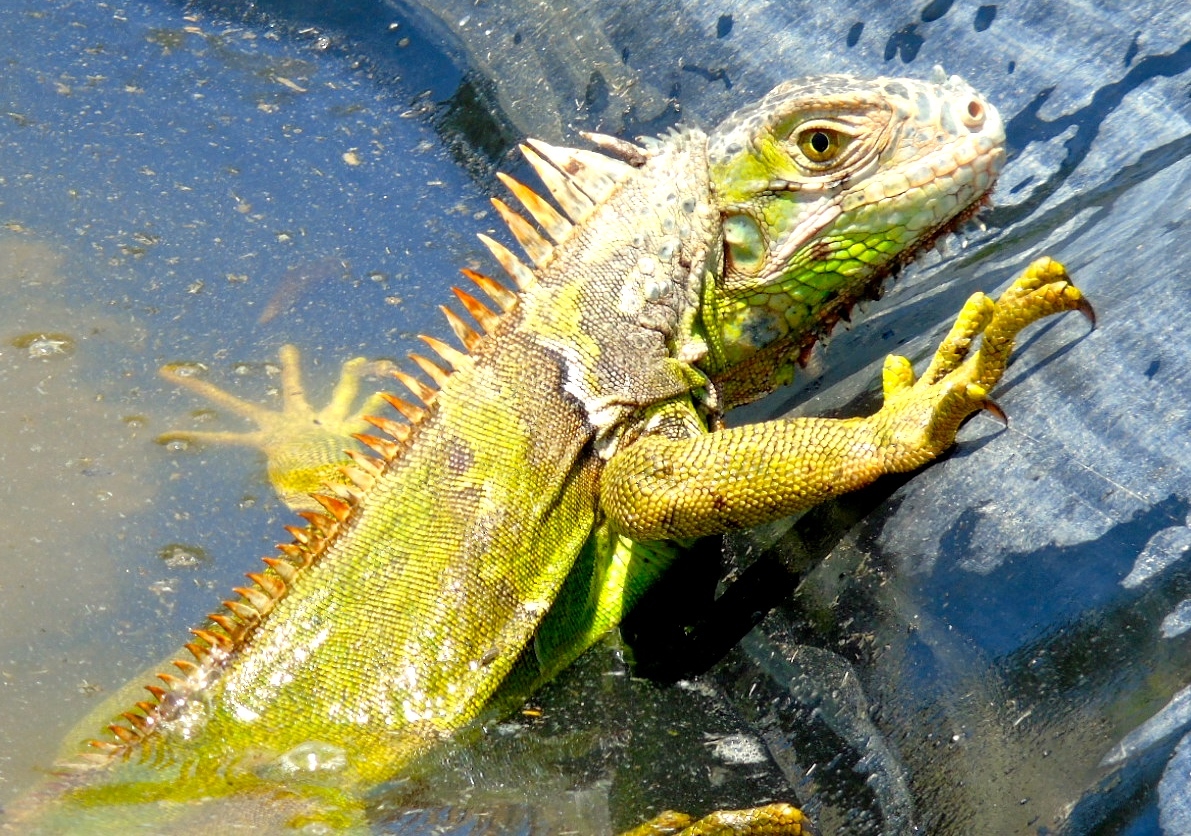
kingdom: Animalia
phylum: Chordata
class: Squamata
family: Iguanidae
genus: Iguana
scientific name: Iguana iguana
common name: Green iguana
